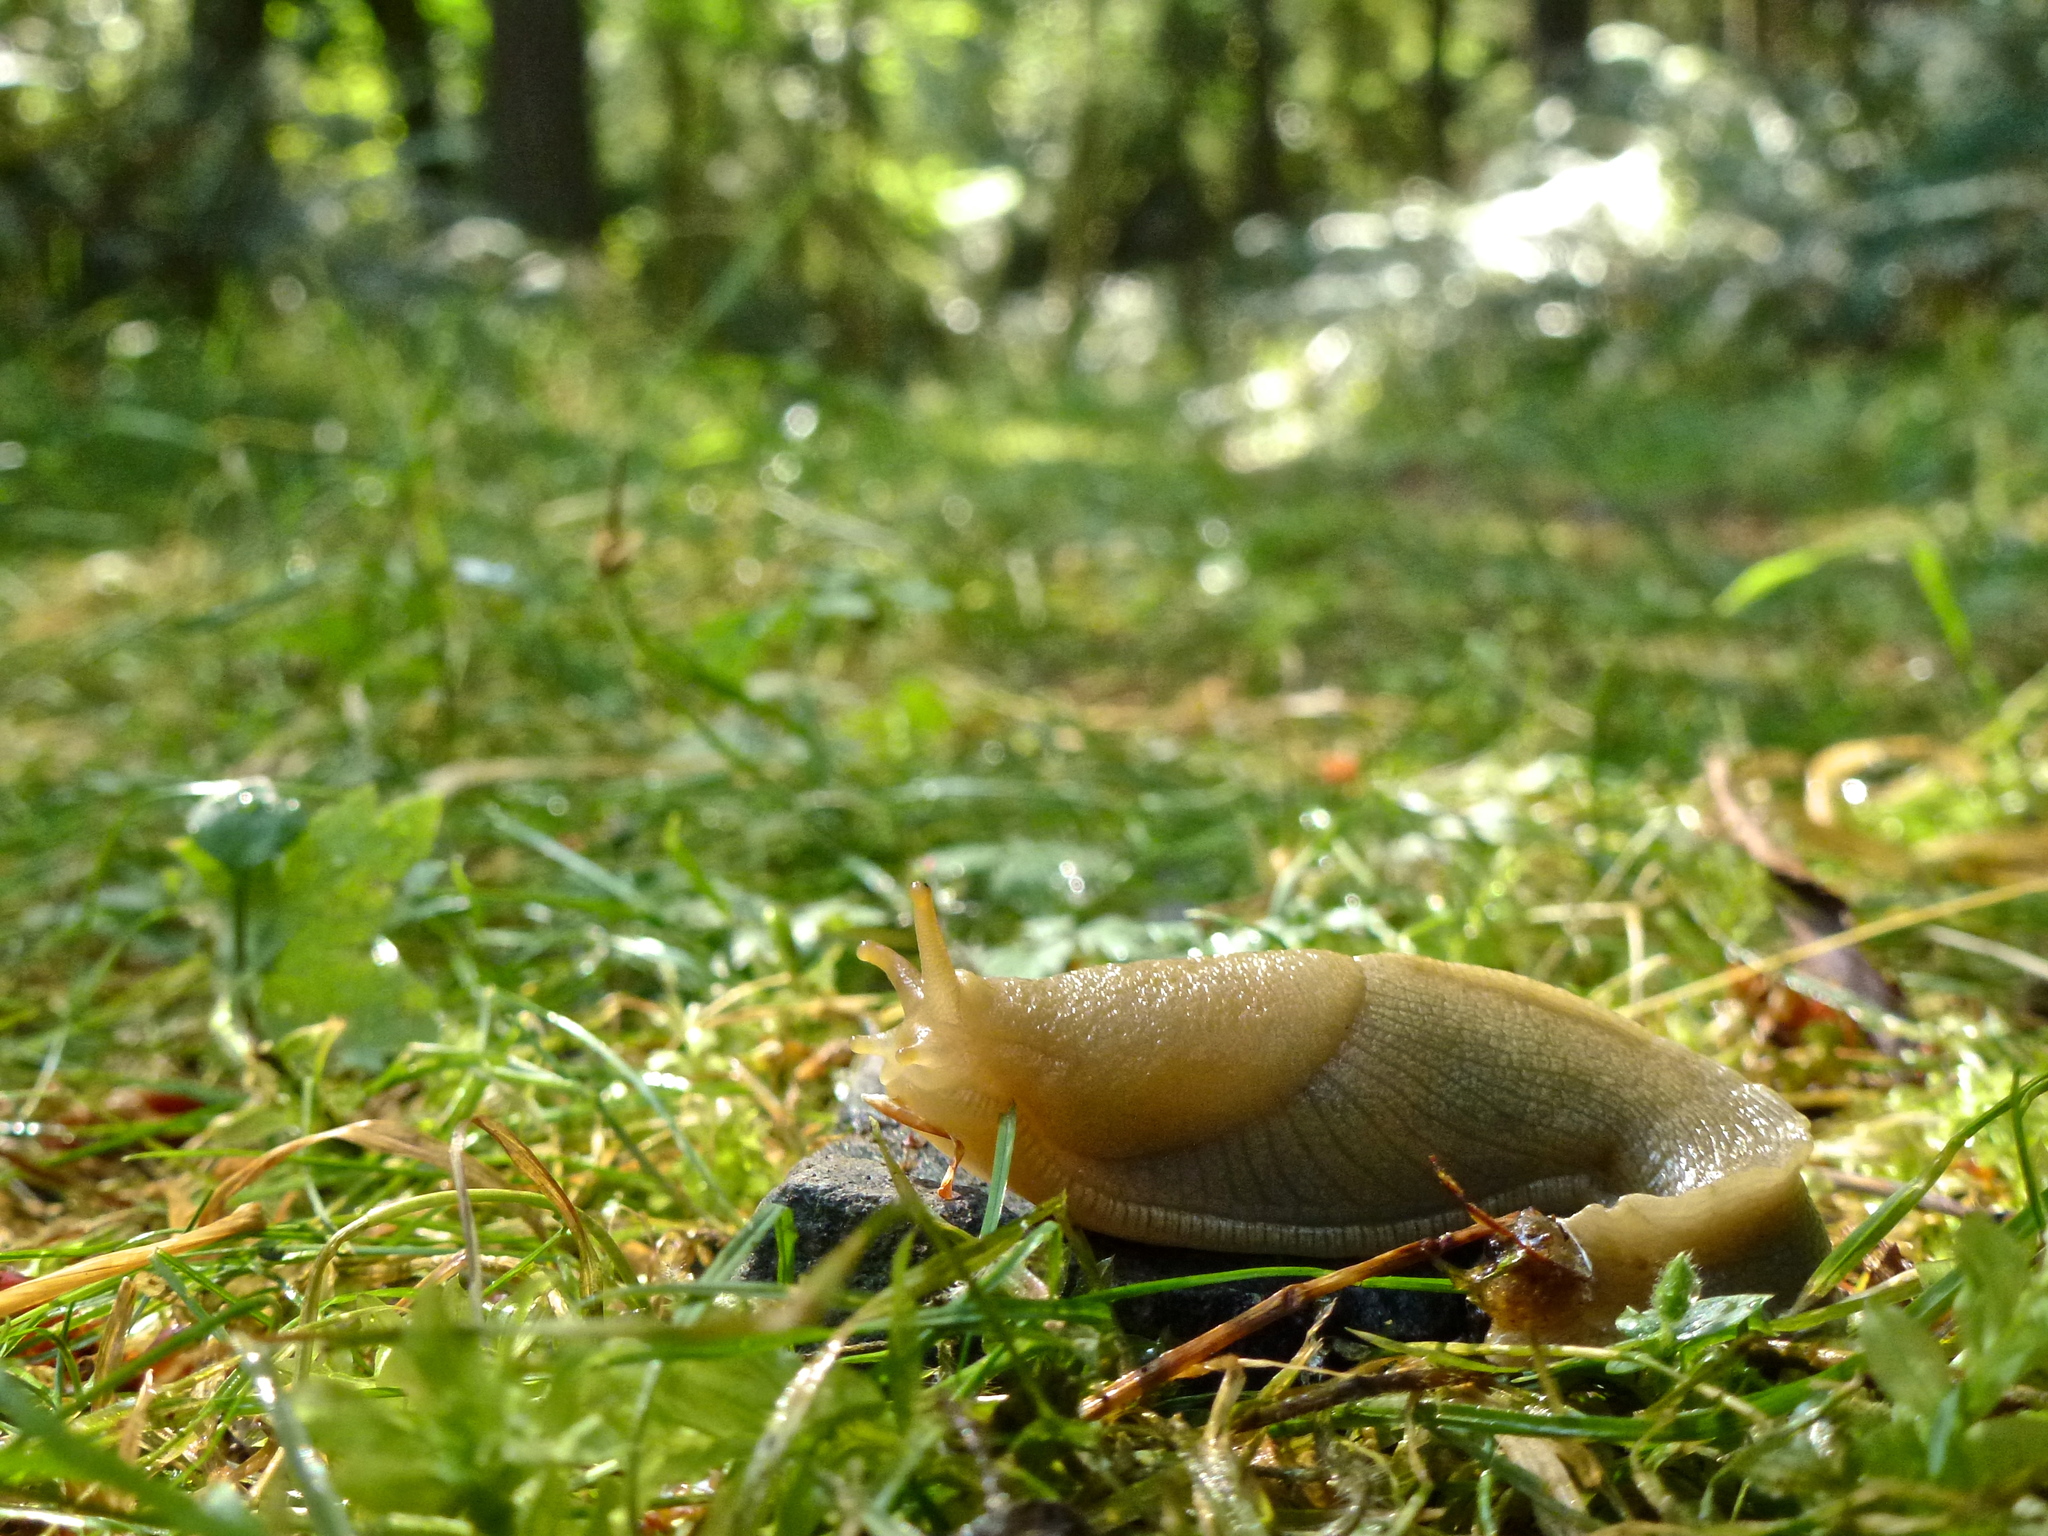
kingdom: Animalia
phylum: Mollusca
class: Gastropoda
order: Stylommatophora
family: Ariolimacidae
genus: Ariolimax
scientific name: Ariolimax columbianus
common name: Pacific banana slug
